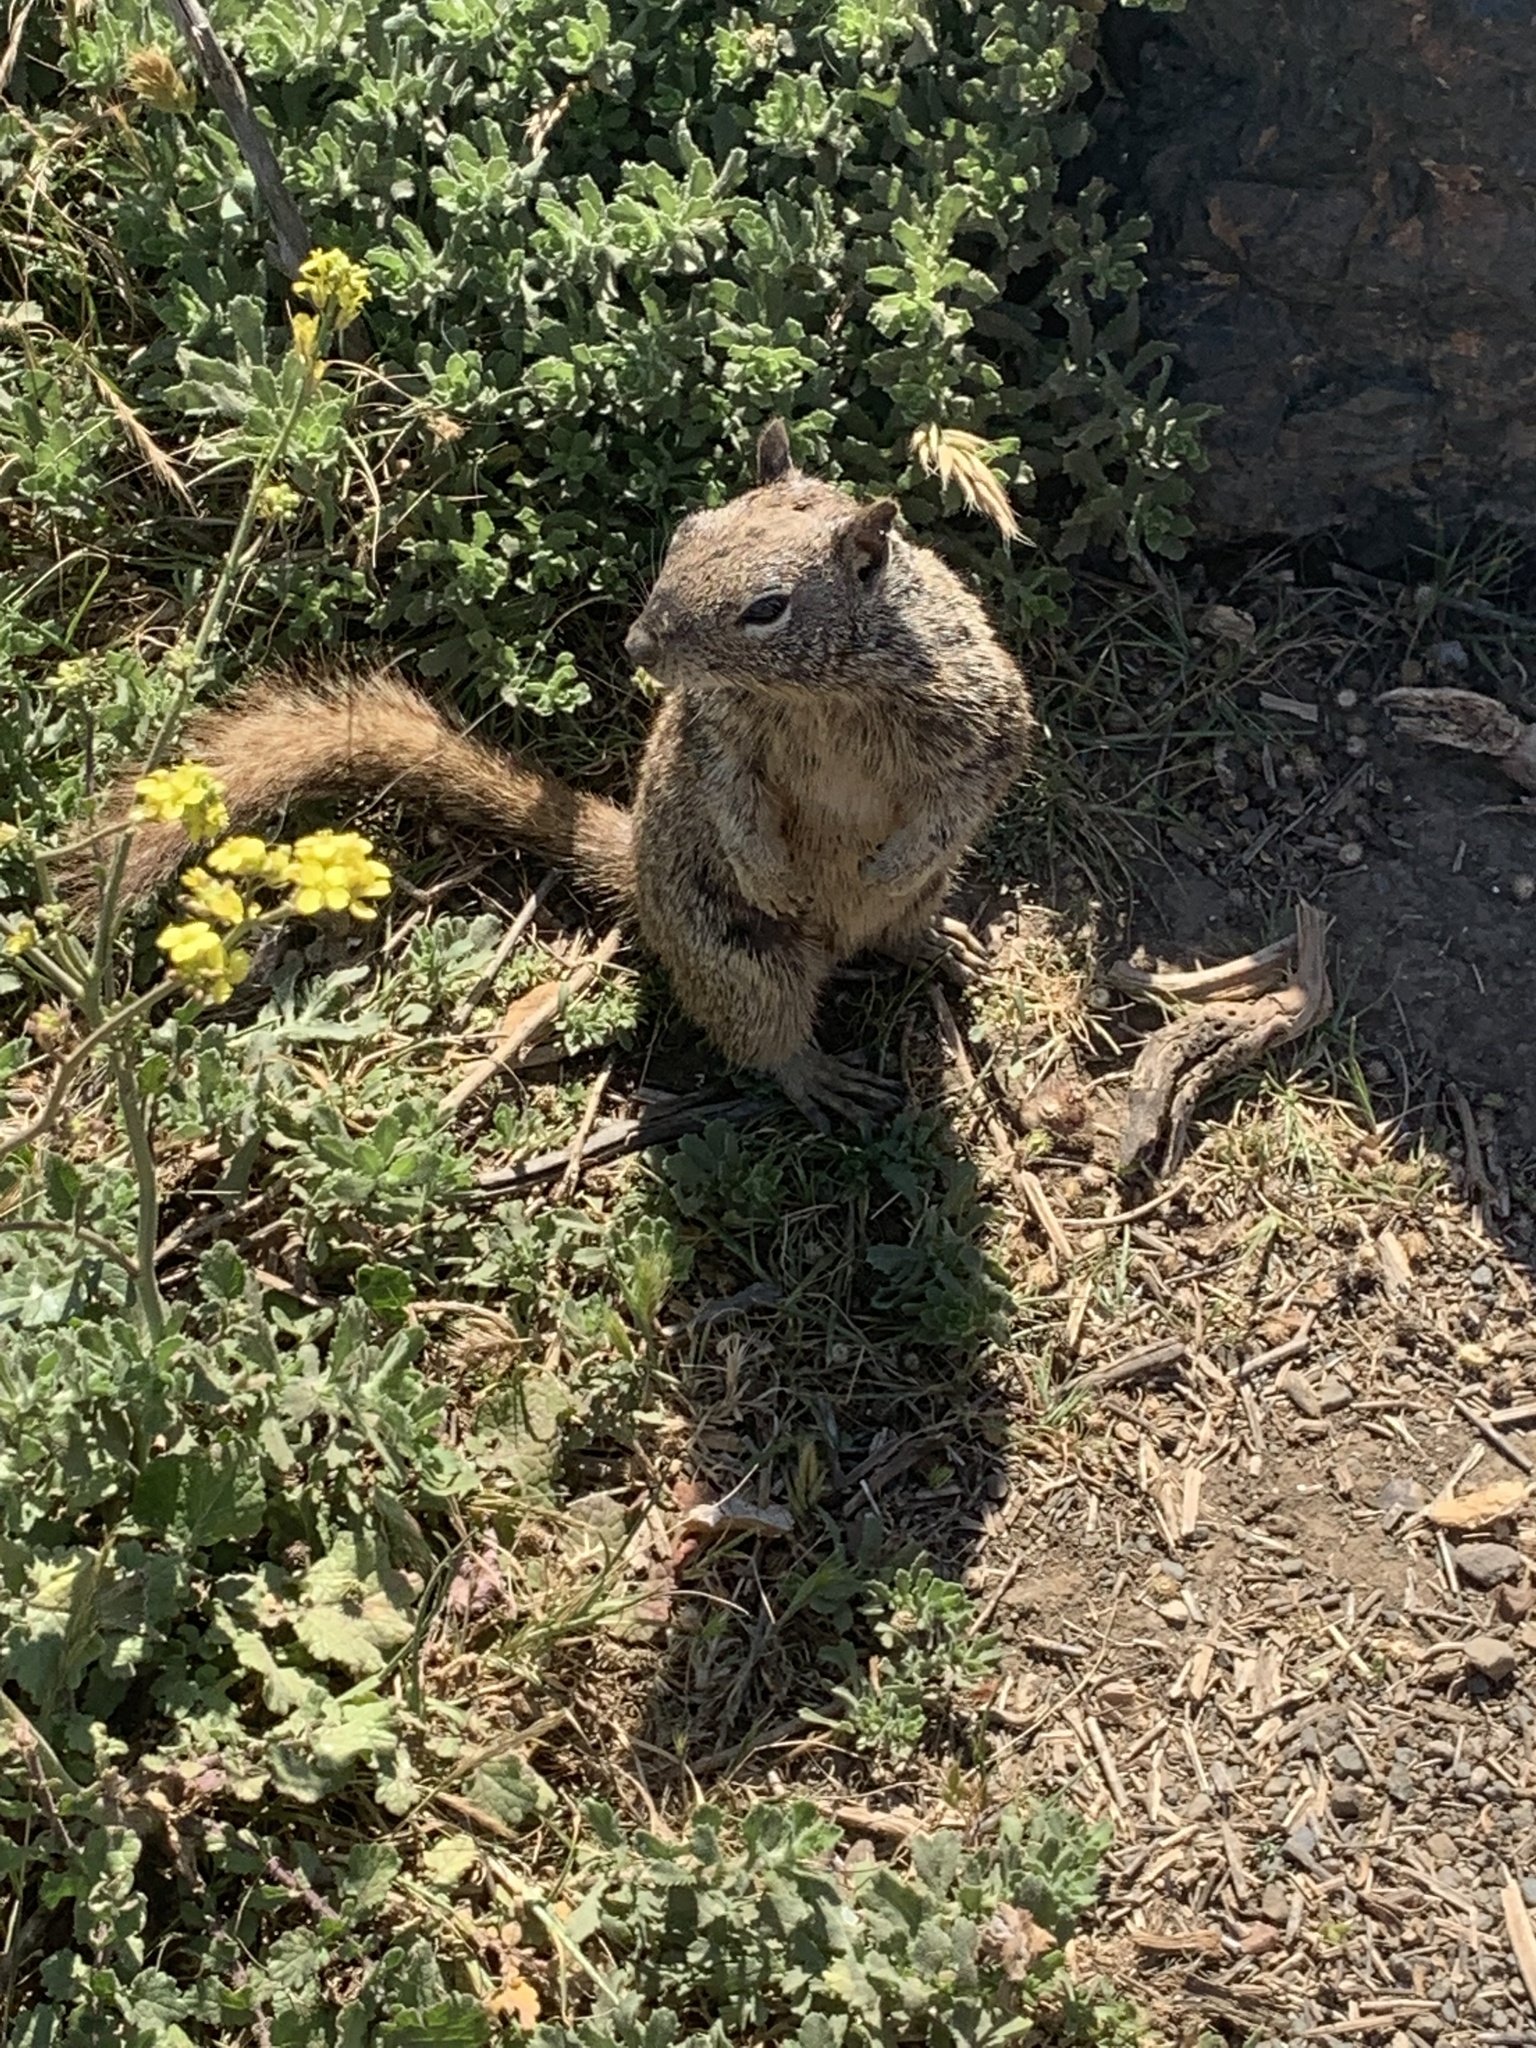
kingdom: Animalia
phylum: Chordata
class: Mammalia
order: Rodentia
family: Sciuridae
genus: Otospermophilus
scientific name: Otospermophilus beecheyi
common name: California ground squirrel
